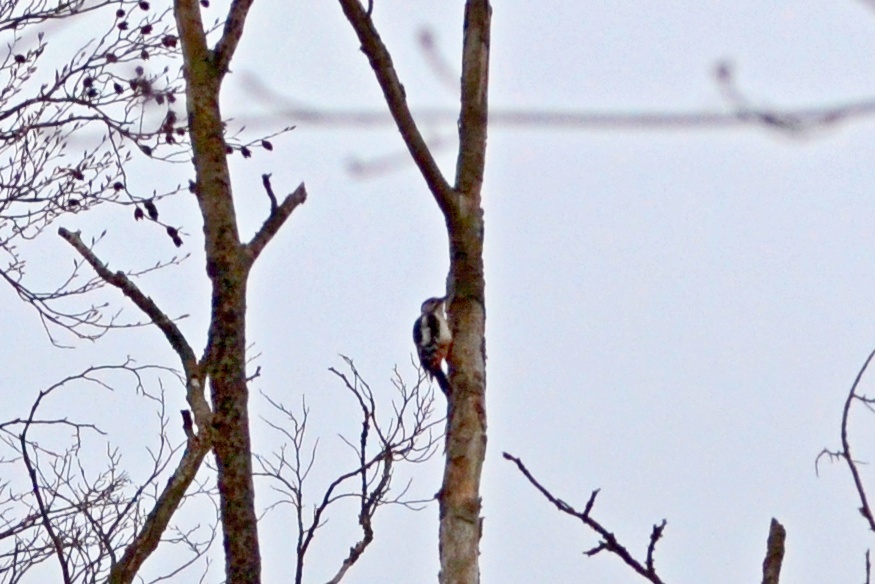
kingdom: Animalia
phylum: Chordata
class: Aves
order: Piciformes
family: Picidae
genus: Dendrocopos
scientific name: Dendrocopos major
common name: Great spotted woodpecker
